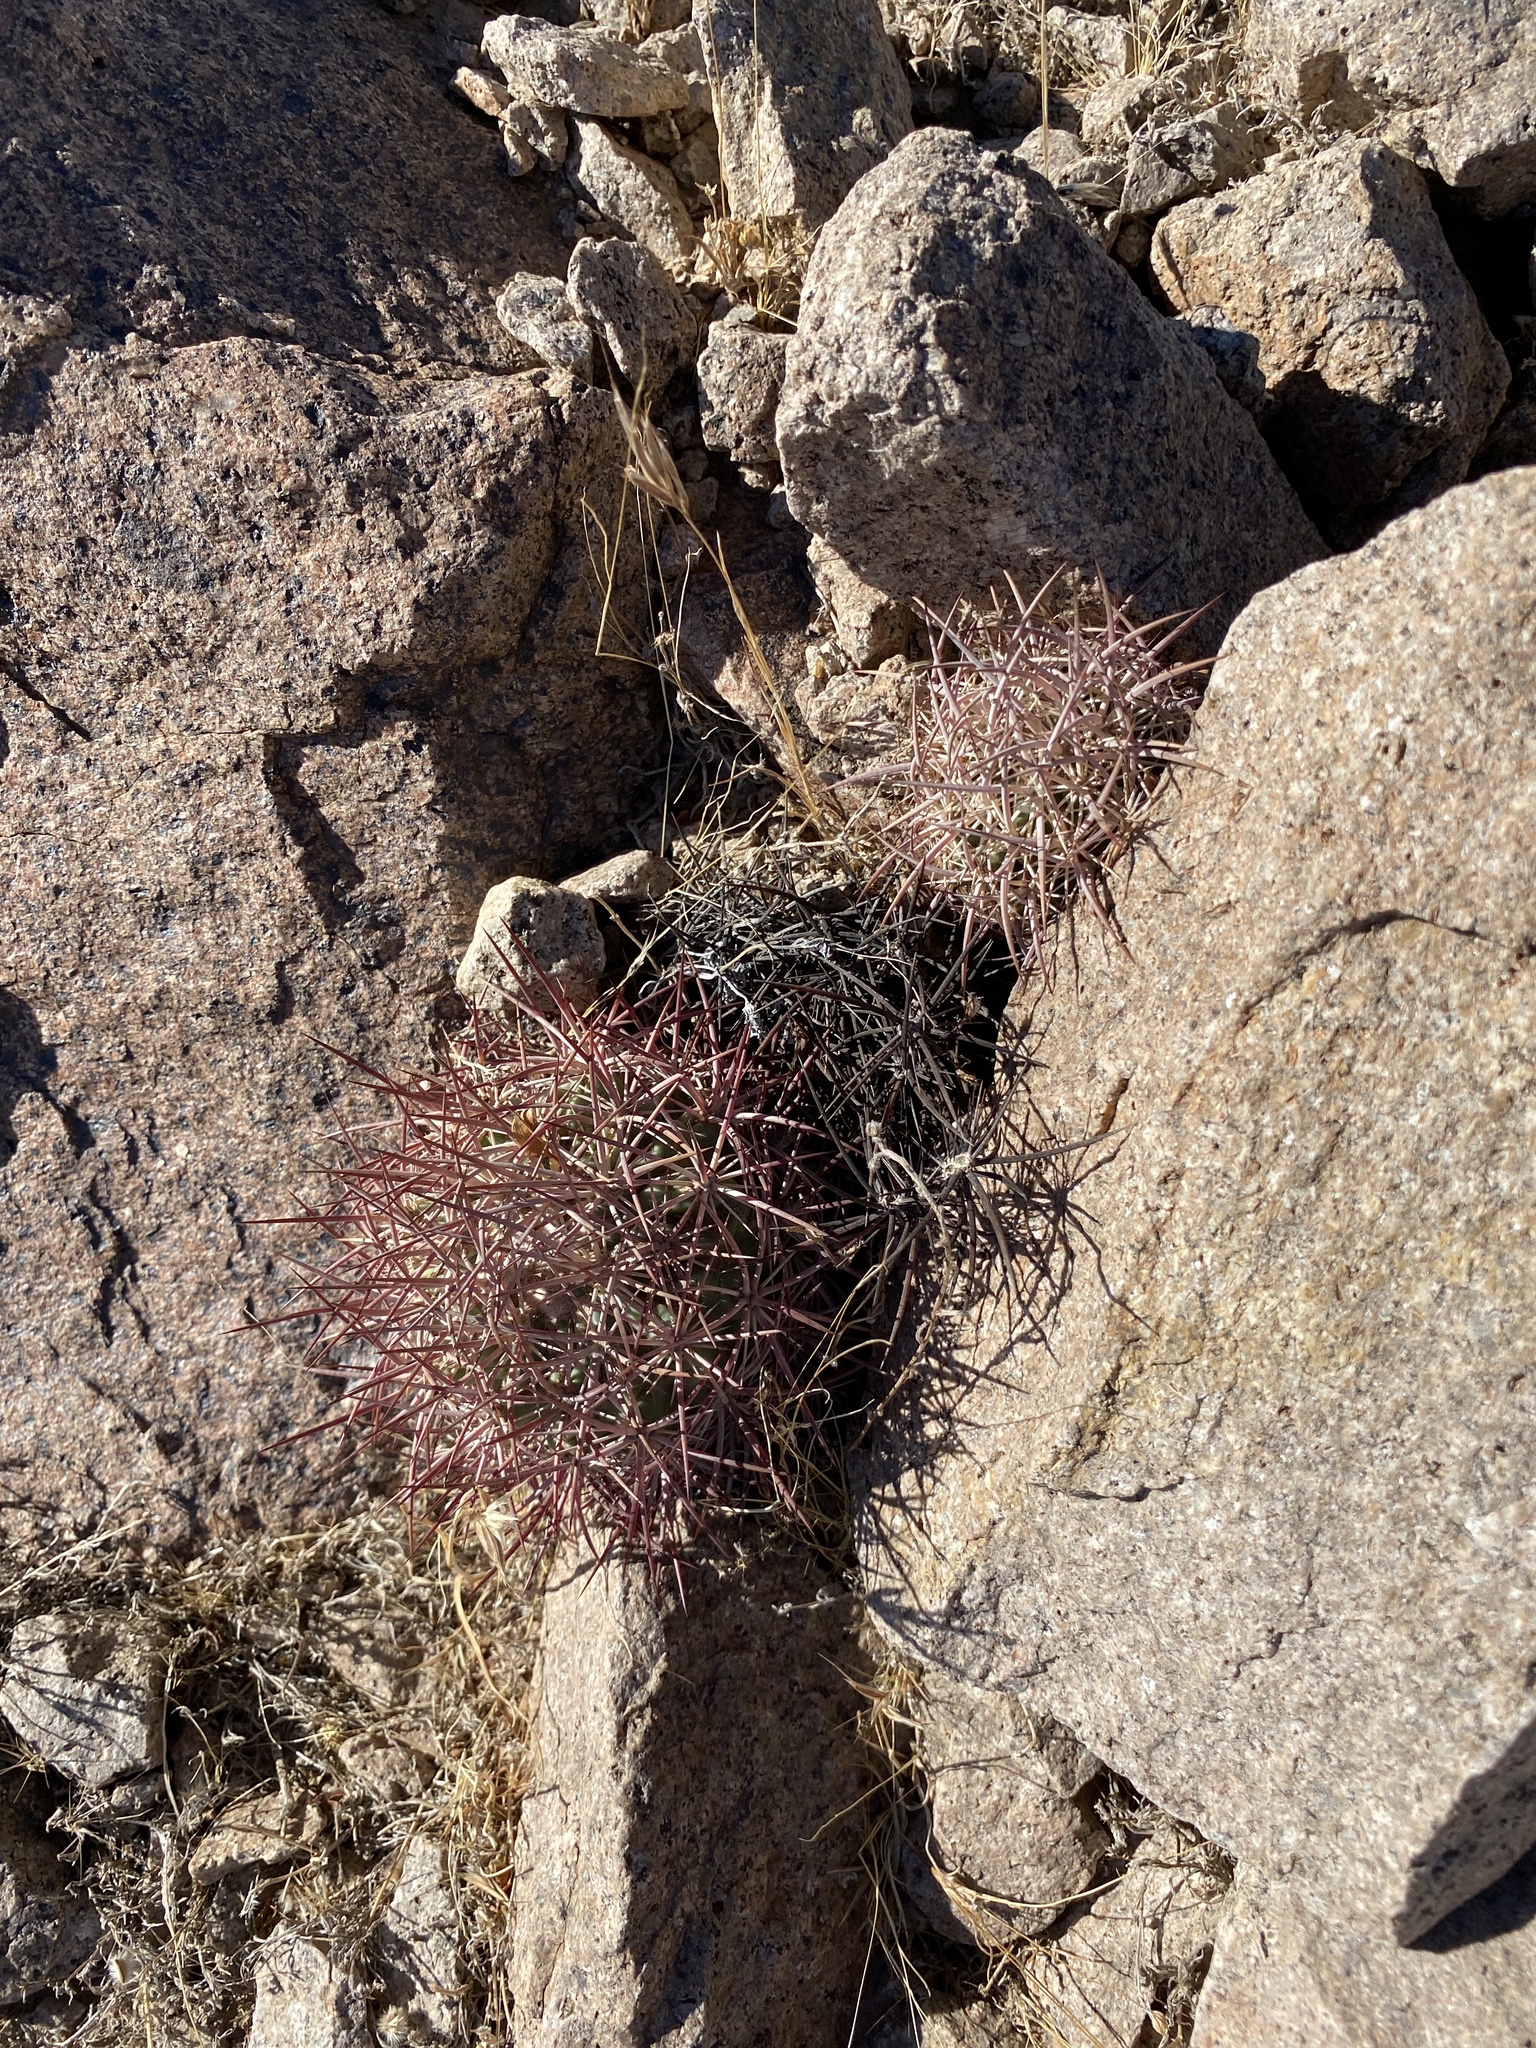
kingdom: Plantae
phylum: Tracheophyta
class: Magnoliopsida
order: Caryophyllales
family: Cactaceae
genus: Sclerocactus
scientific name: Sclerocactus johnsonii
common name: Eight-spine fishhook cactus
